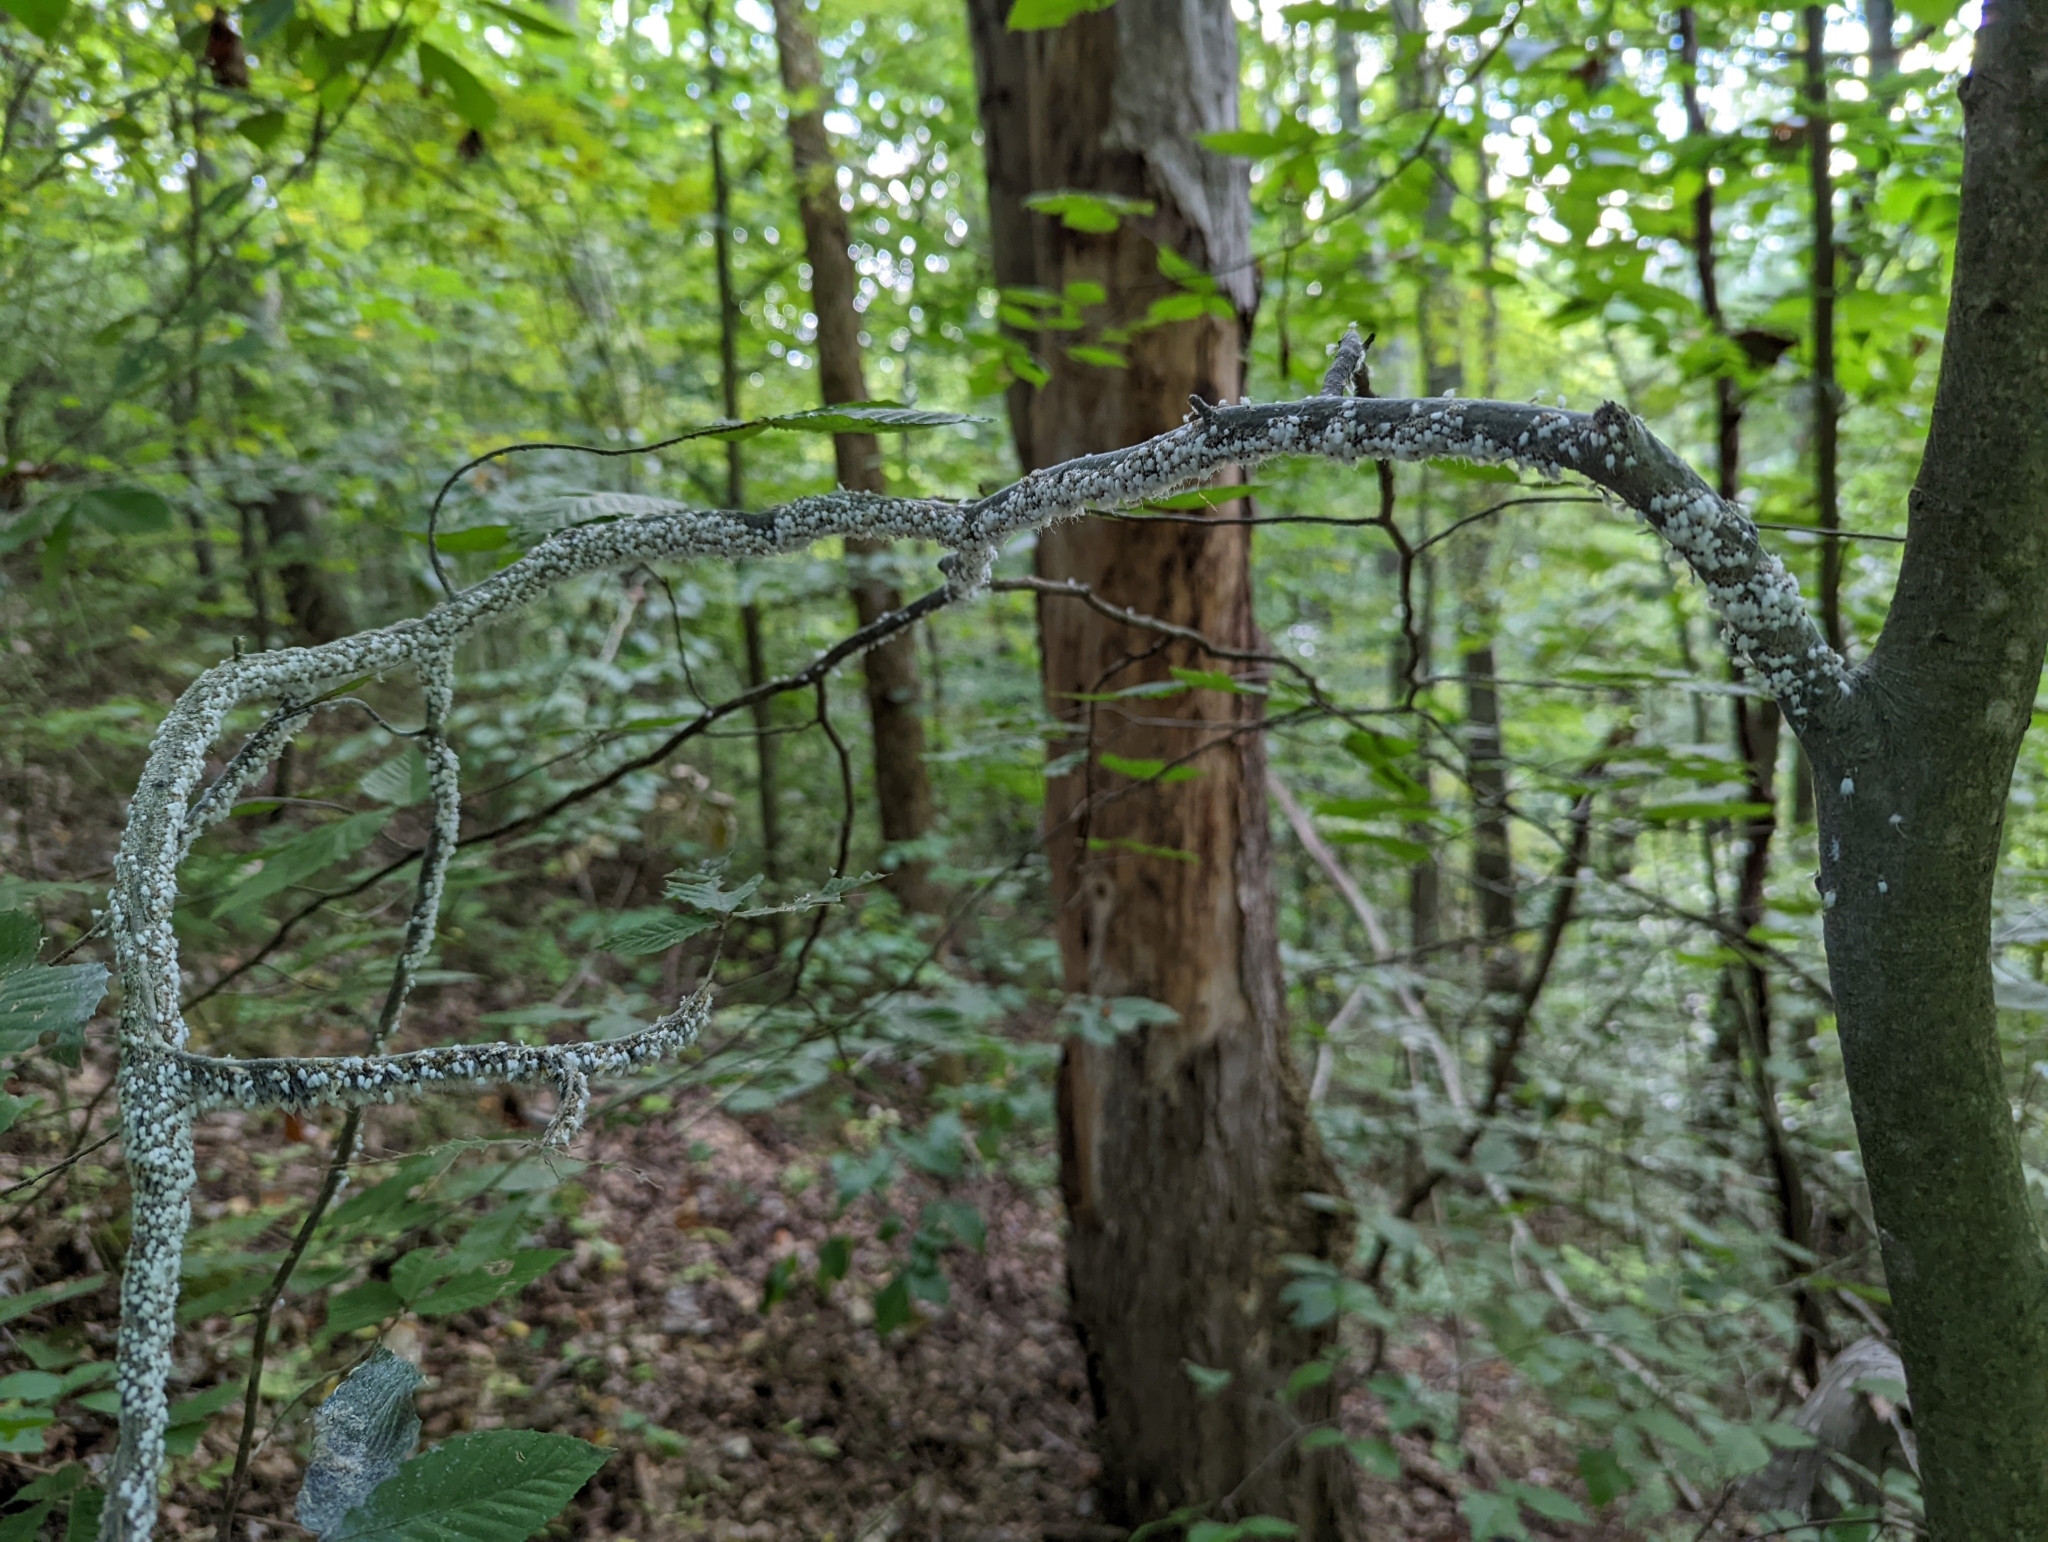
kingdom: Animalia
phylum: Arthropoda
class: Insecta
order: Hemiptera
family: Aphididae
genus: Grylloprociphilus
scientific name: Grylloprociphilus imbricator
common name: Beech blight aphid
